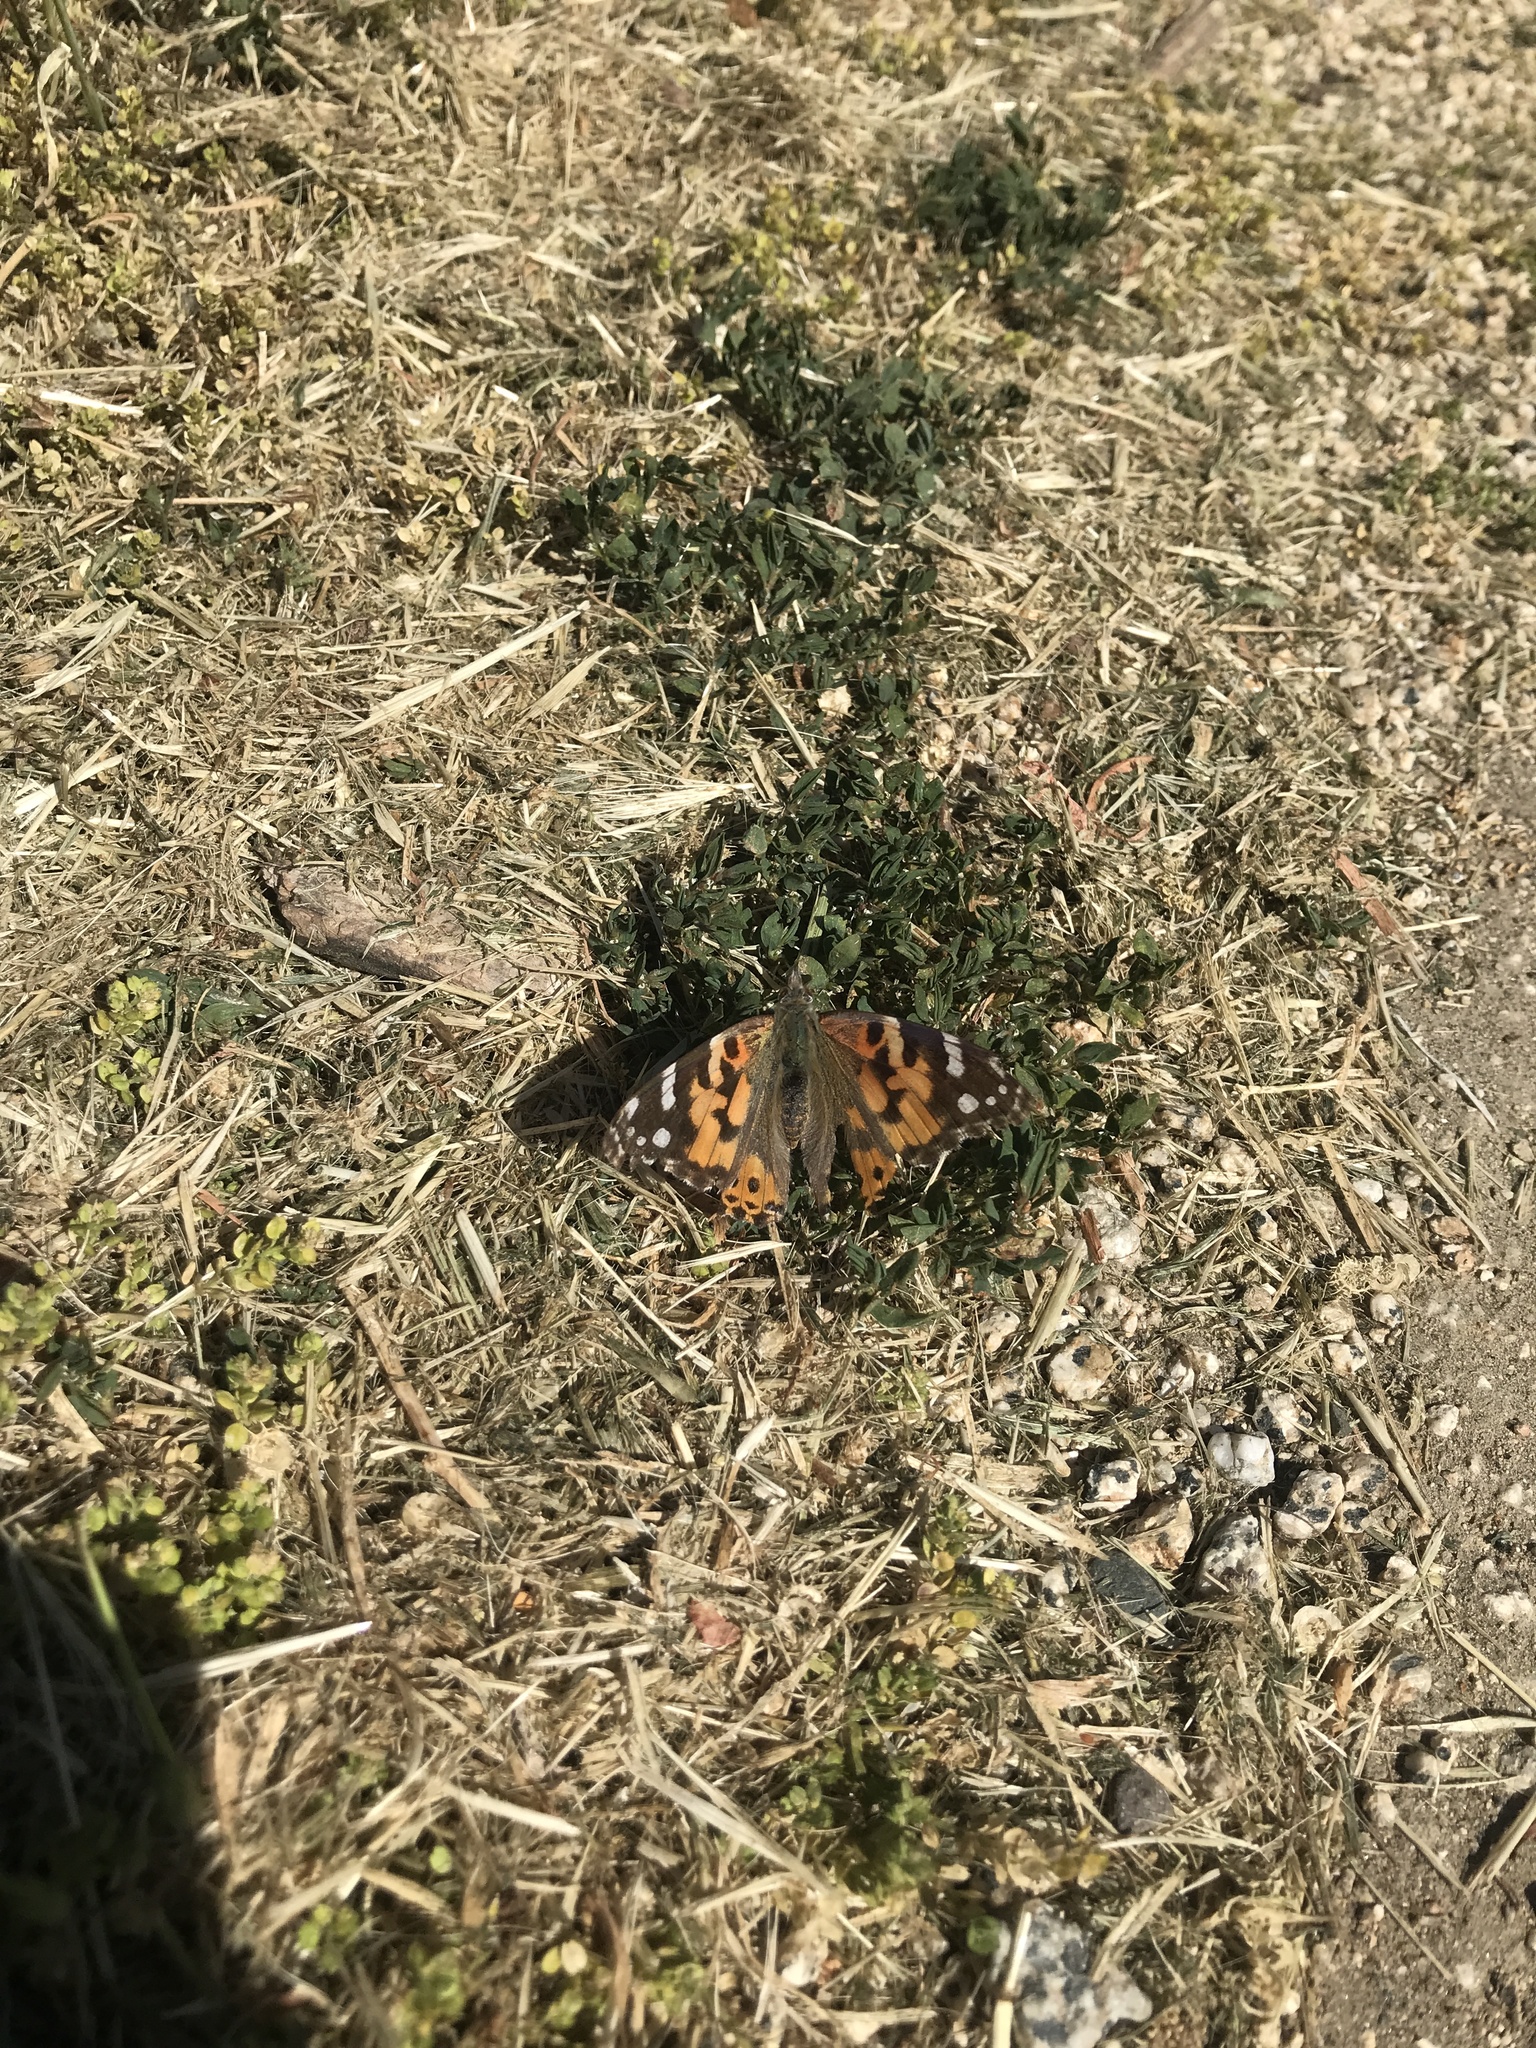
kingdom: Animalia
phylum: Arthropoda
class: Insecta
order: Lepidoptera
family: Nymphalidae
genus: Vanessa
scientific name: Vanessa cardui
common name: Painted lady
